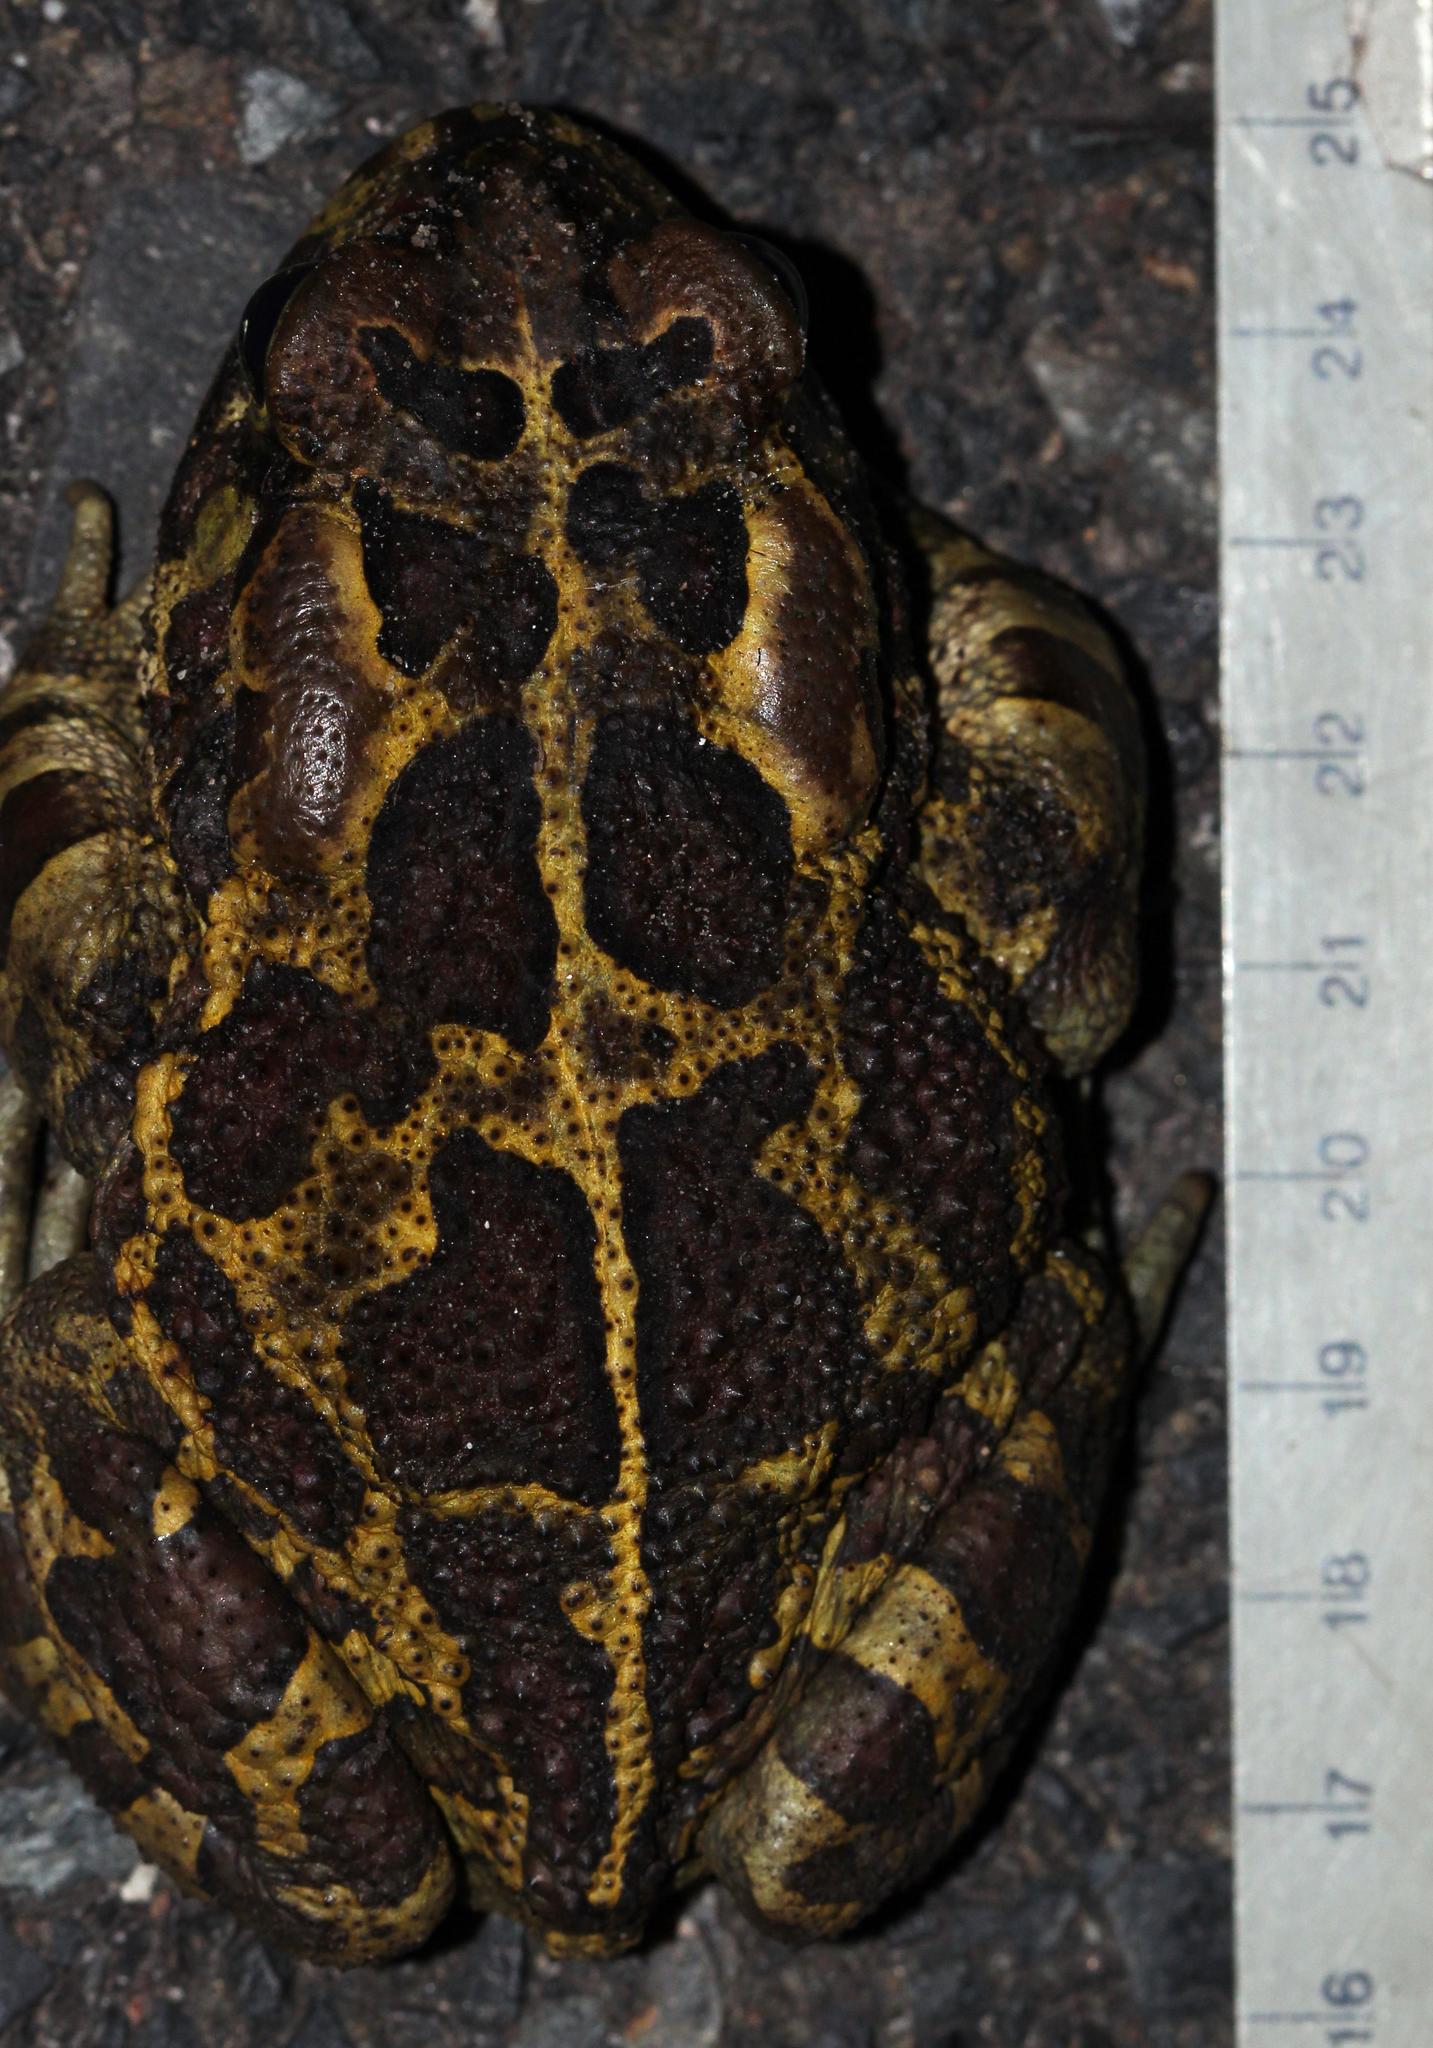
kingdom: Animalia
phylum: Chordata
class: Amphibia
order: Anura
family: Bufonidae
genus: Sclerophrys
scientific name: Sclerophrys pantherina
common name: Panther toad
